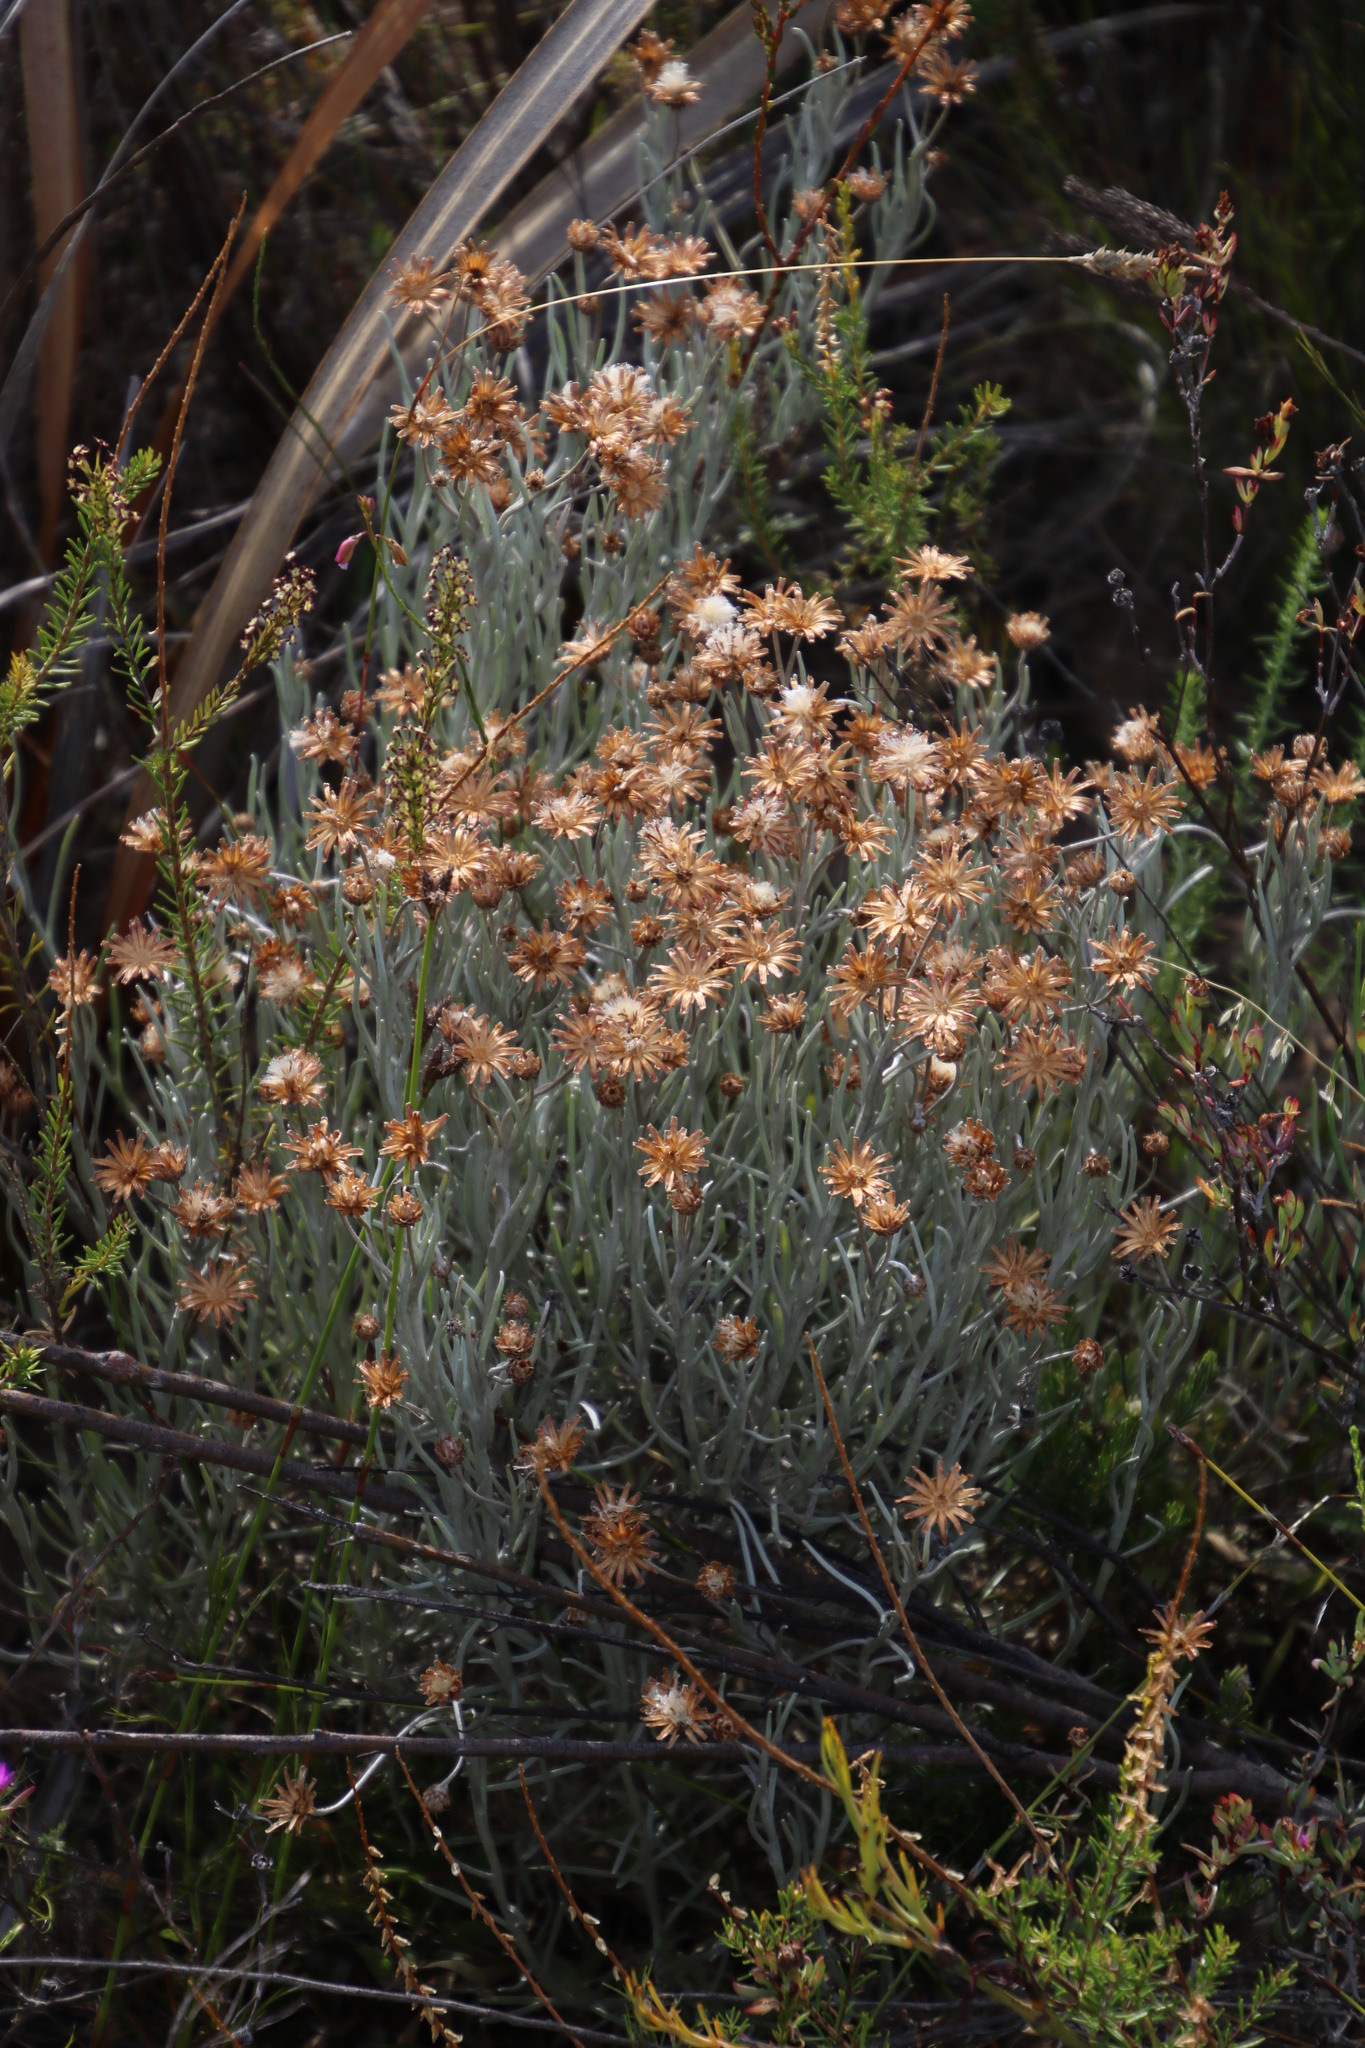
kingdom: Plantae
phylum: Tracheophyta
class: Magnoliopsida
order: Asterales
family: Asteraceae
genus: Syncarpha
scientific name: Syncarpha gnaphaloides
